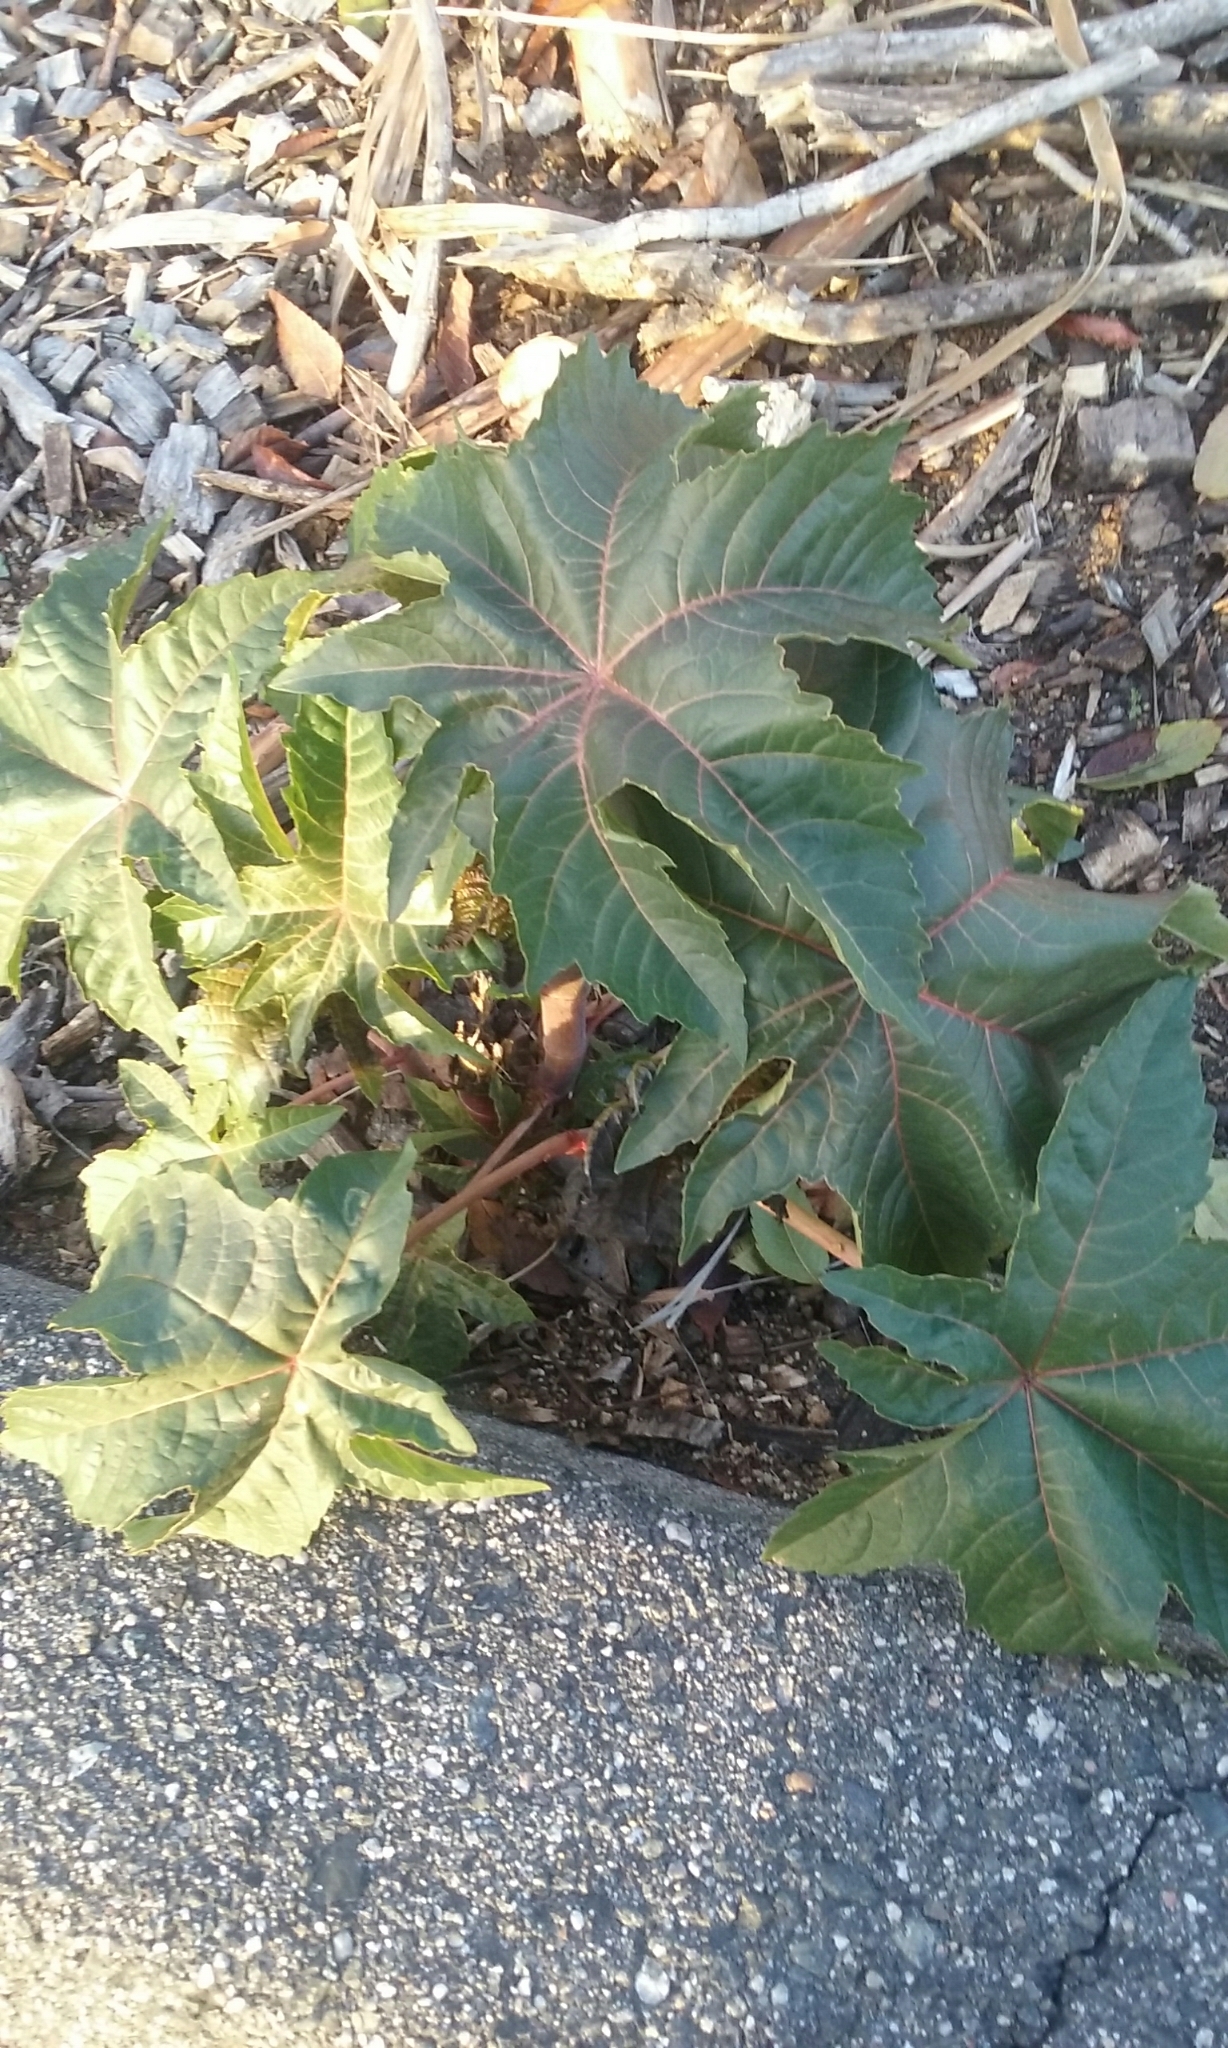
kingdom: Plantae
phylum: Tracheophyta
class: Magnoliopsida
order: Malpighiales
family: Euphorbiaceae
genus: Ricinus
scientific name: Ricinus communis
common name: Castor-oil-plant
